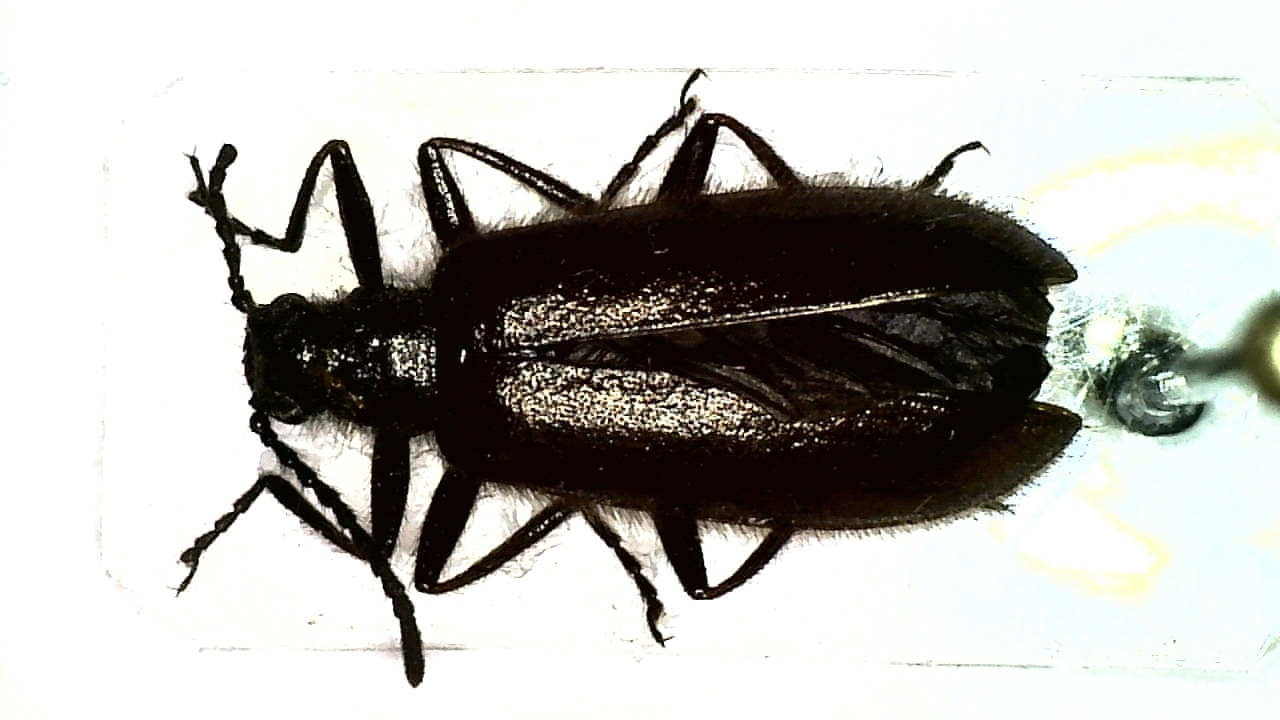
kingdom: Animalia
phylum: Arthropoda
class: Insecta
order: Coleoptera
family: Tenebrionidae
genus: Lagria
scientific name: Lagria hirta
